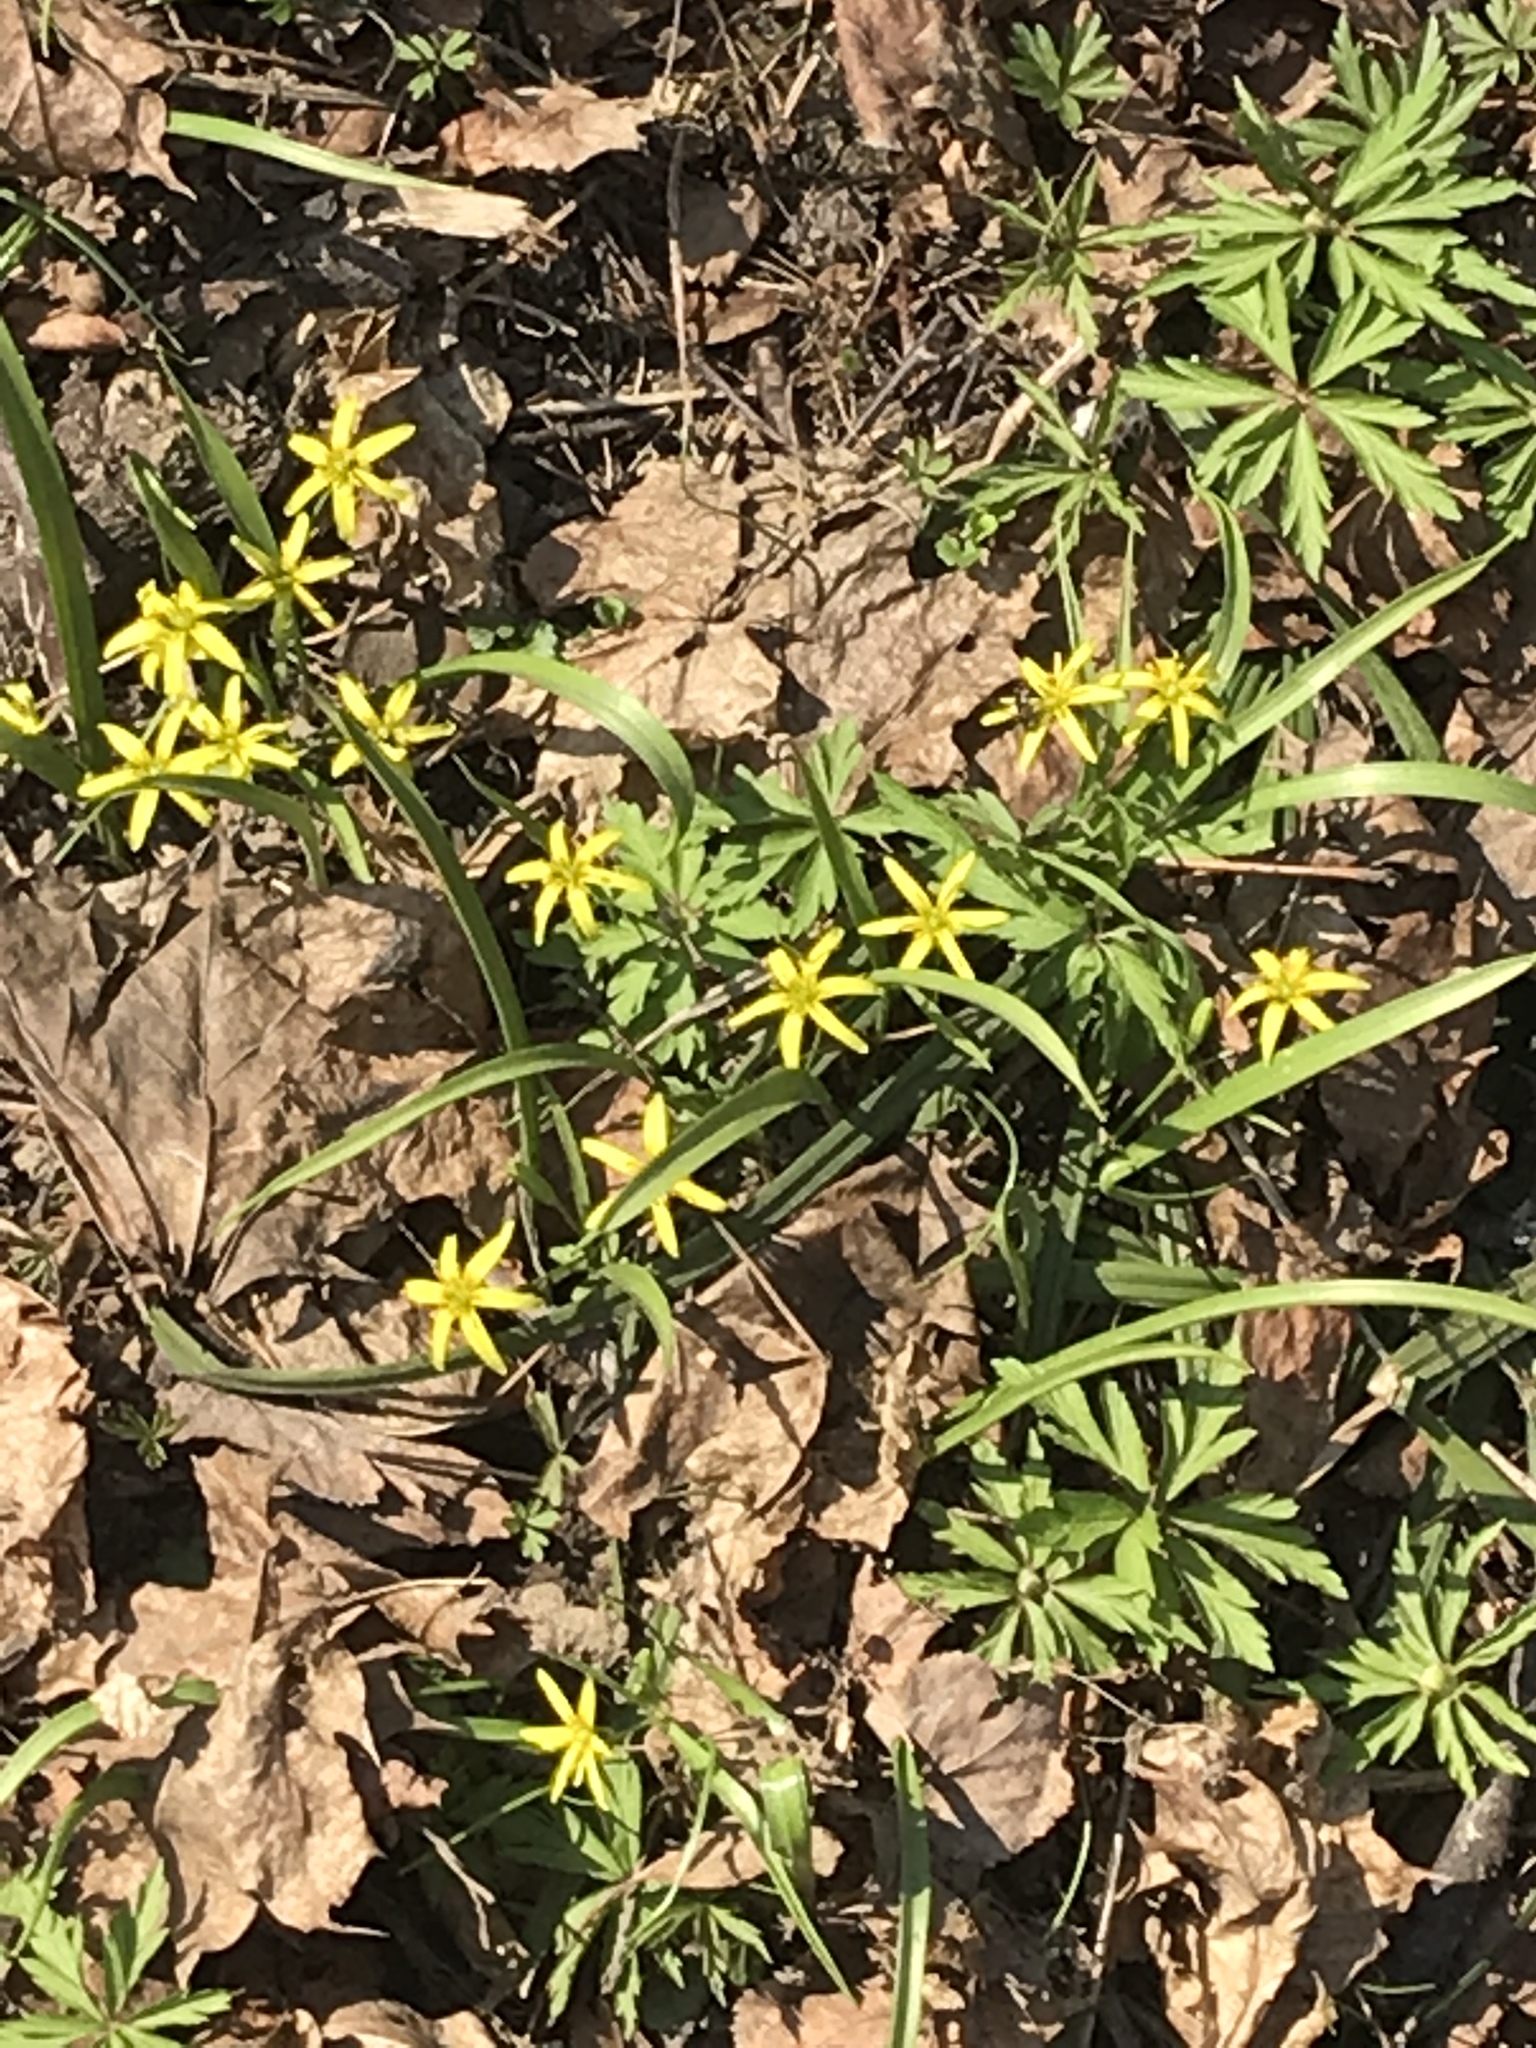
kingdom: Plantae
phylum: Tracheophyta
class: Liliopsida
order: Liliales
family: Liliaceae
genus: Gagea
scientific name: Gagea lutea
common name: Yellow star-of-bethlehem
